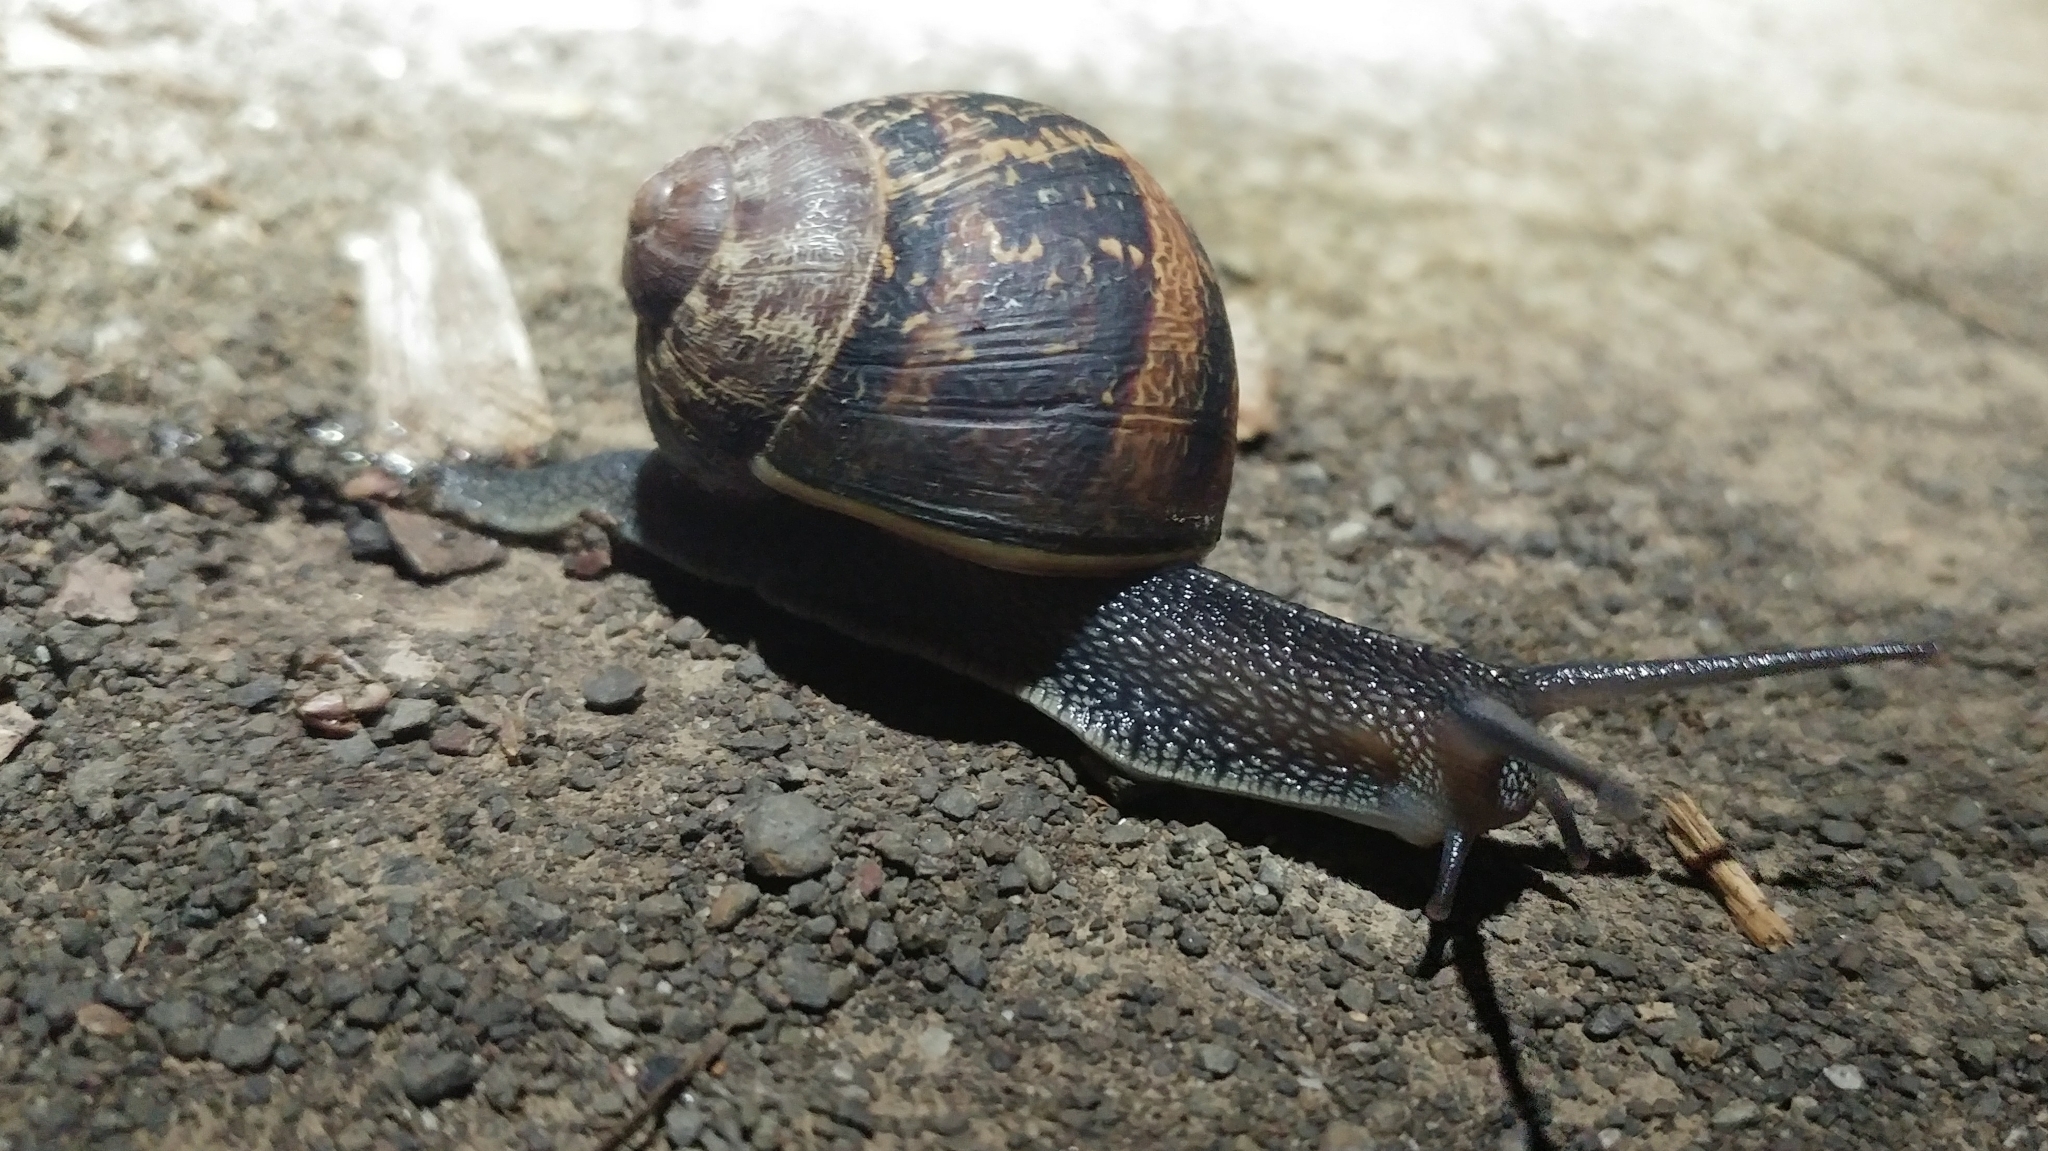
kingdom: Animalia
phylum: Mollusca
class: Gastropoda
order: Stylommatophora
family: Helicidae
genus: Cornu
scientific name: Cornu aspersum
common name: Brown garden snail
